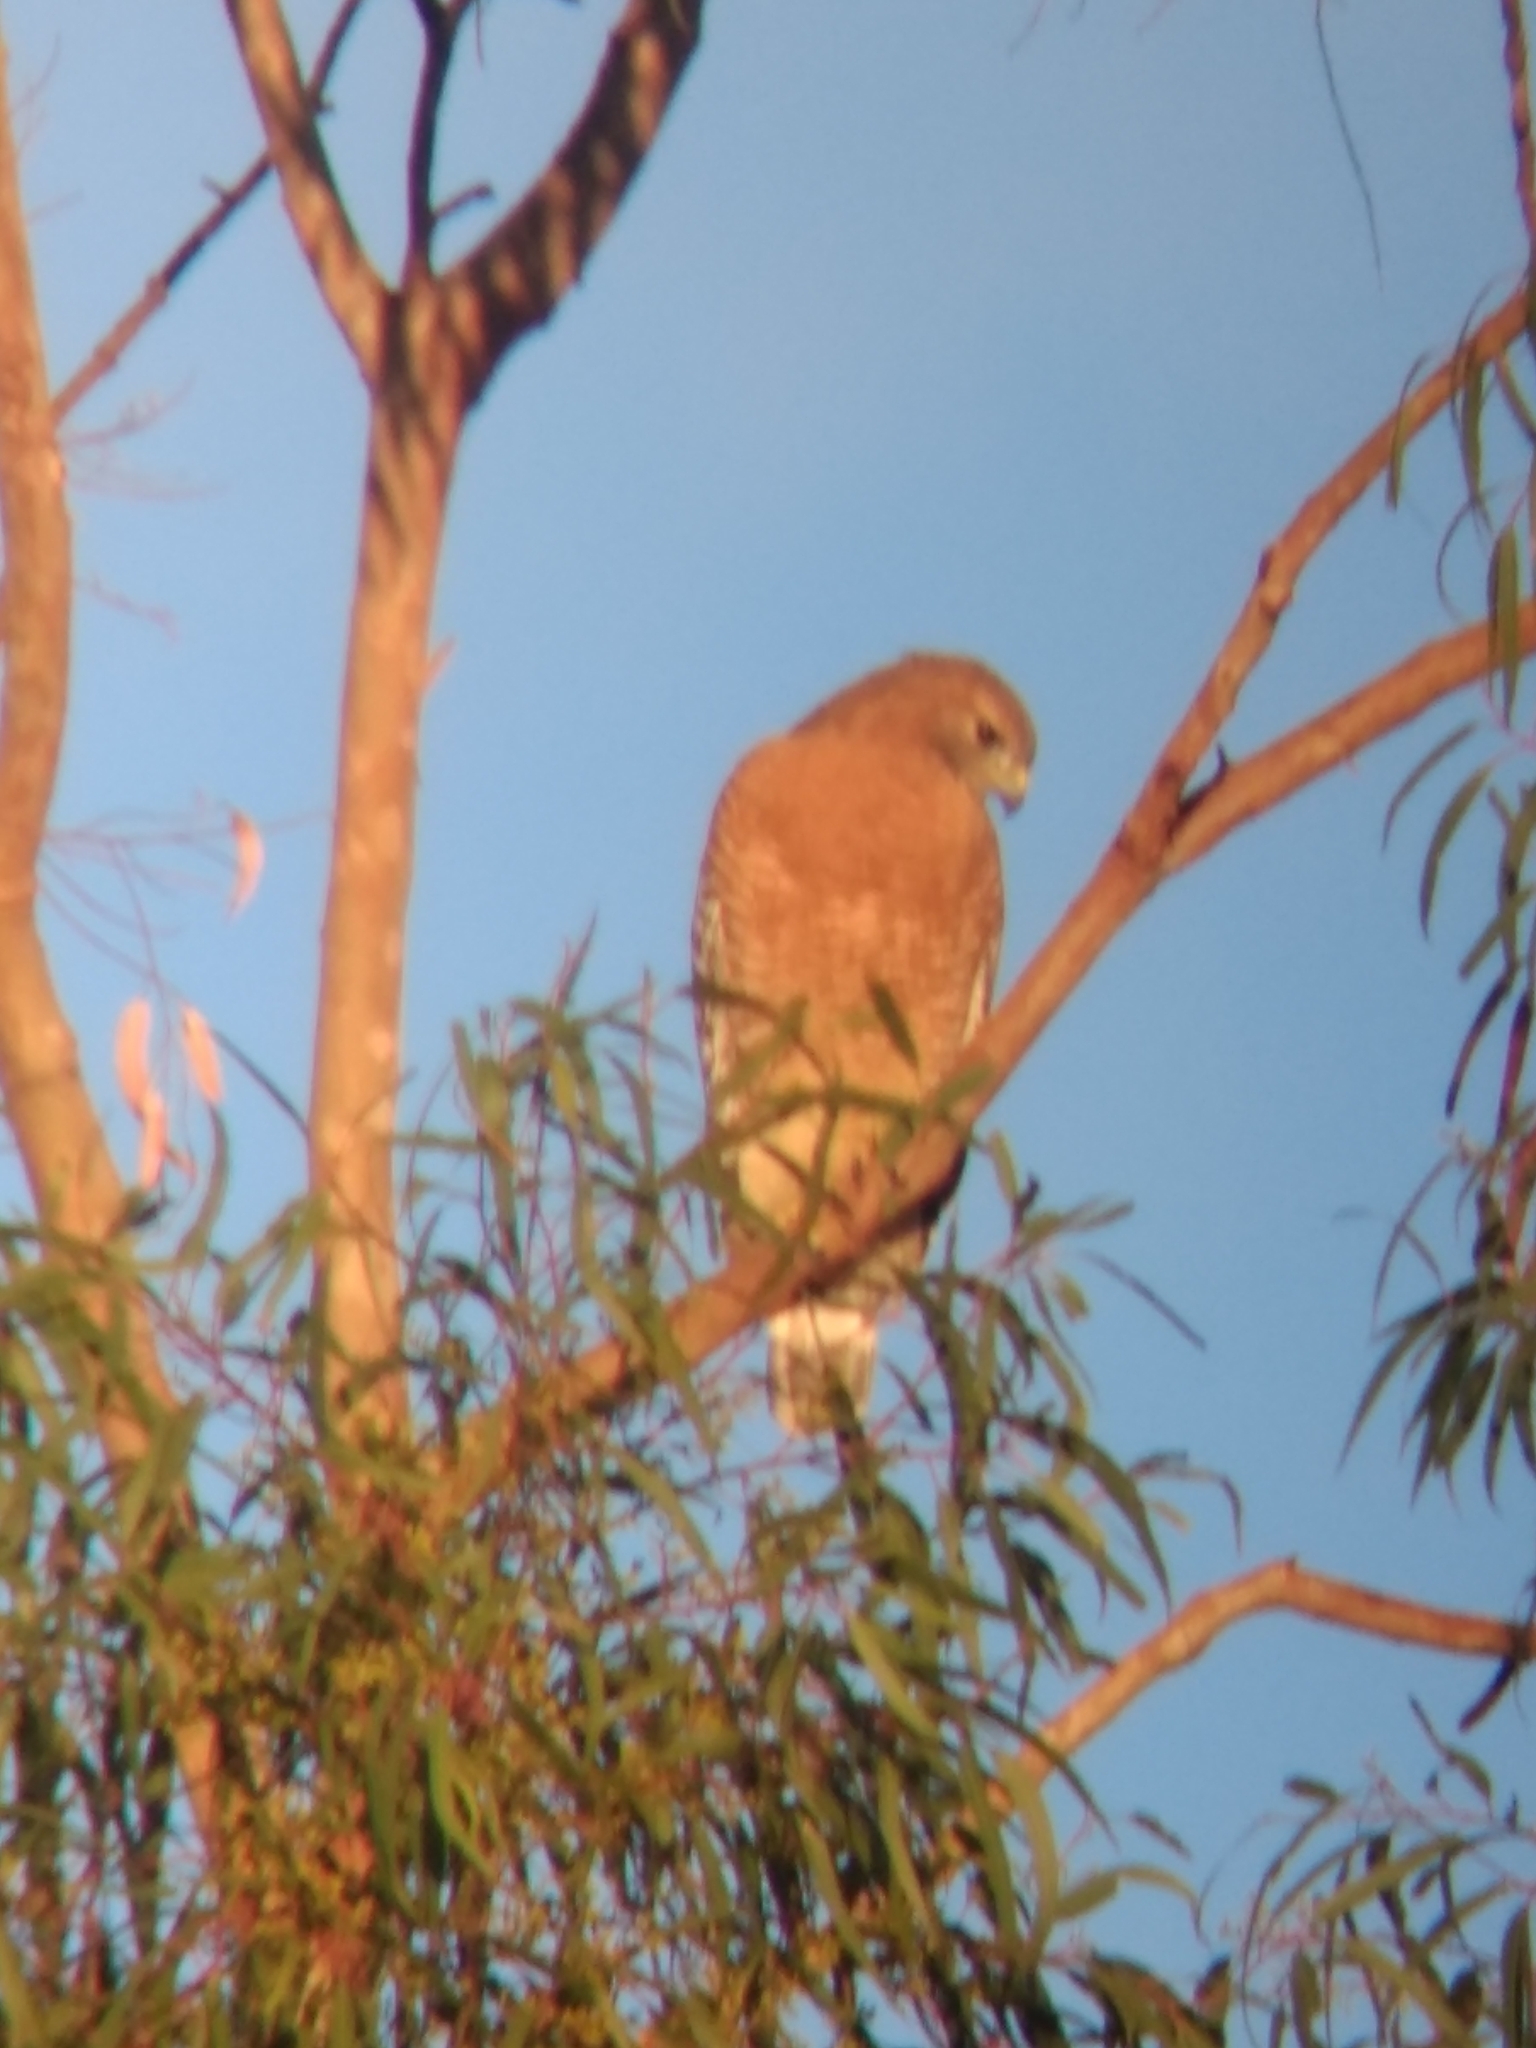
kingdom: Animalia
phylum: Chordata
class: Aves
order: Accipitriformes
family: Accipitridae
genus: Buteo
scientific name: Buteo lineatus
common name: Red-shouldered hawk
